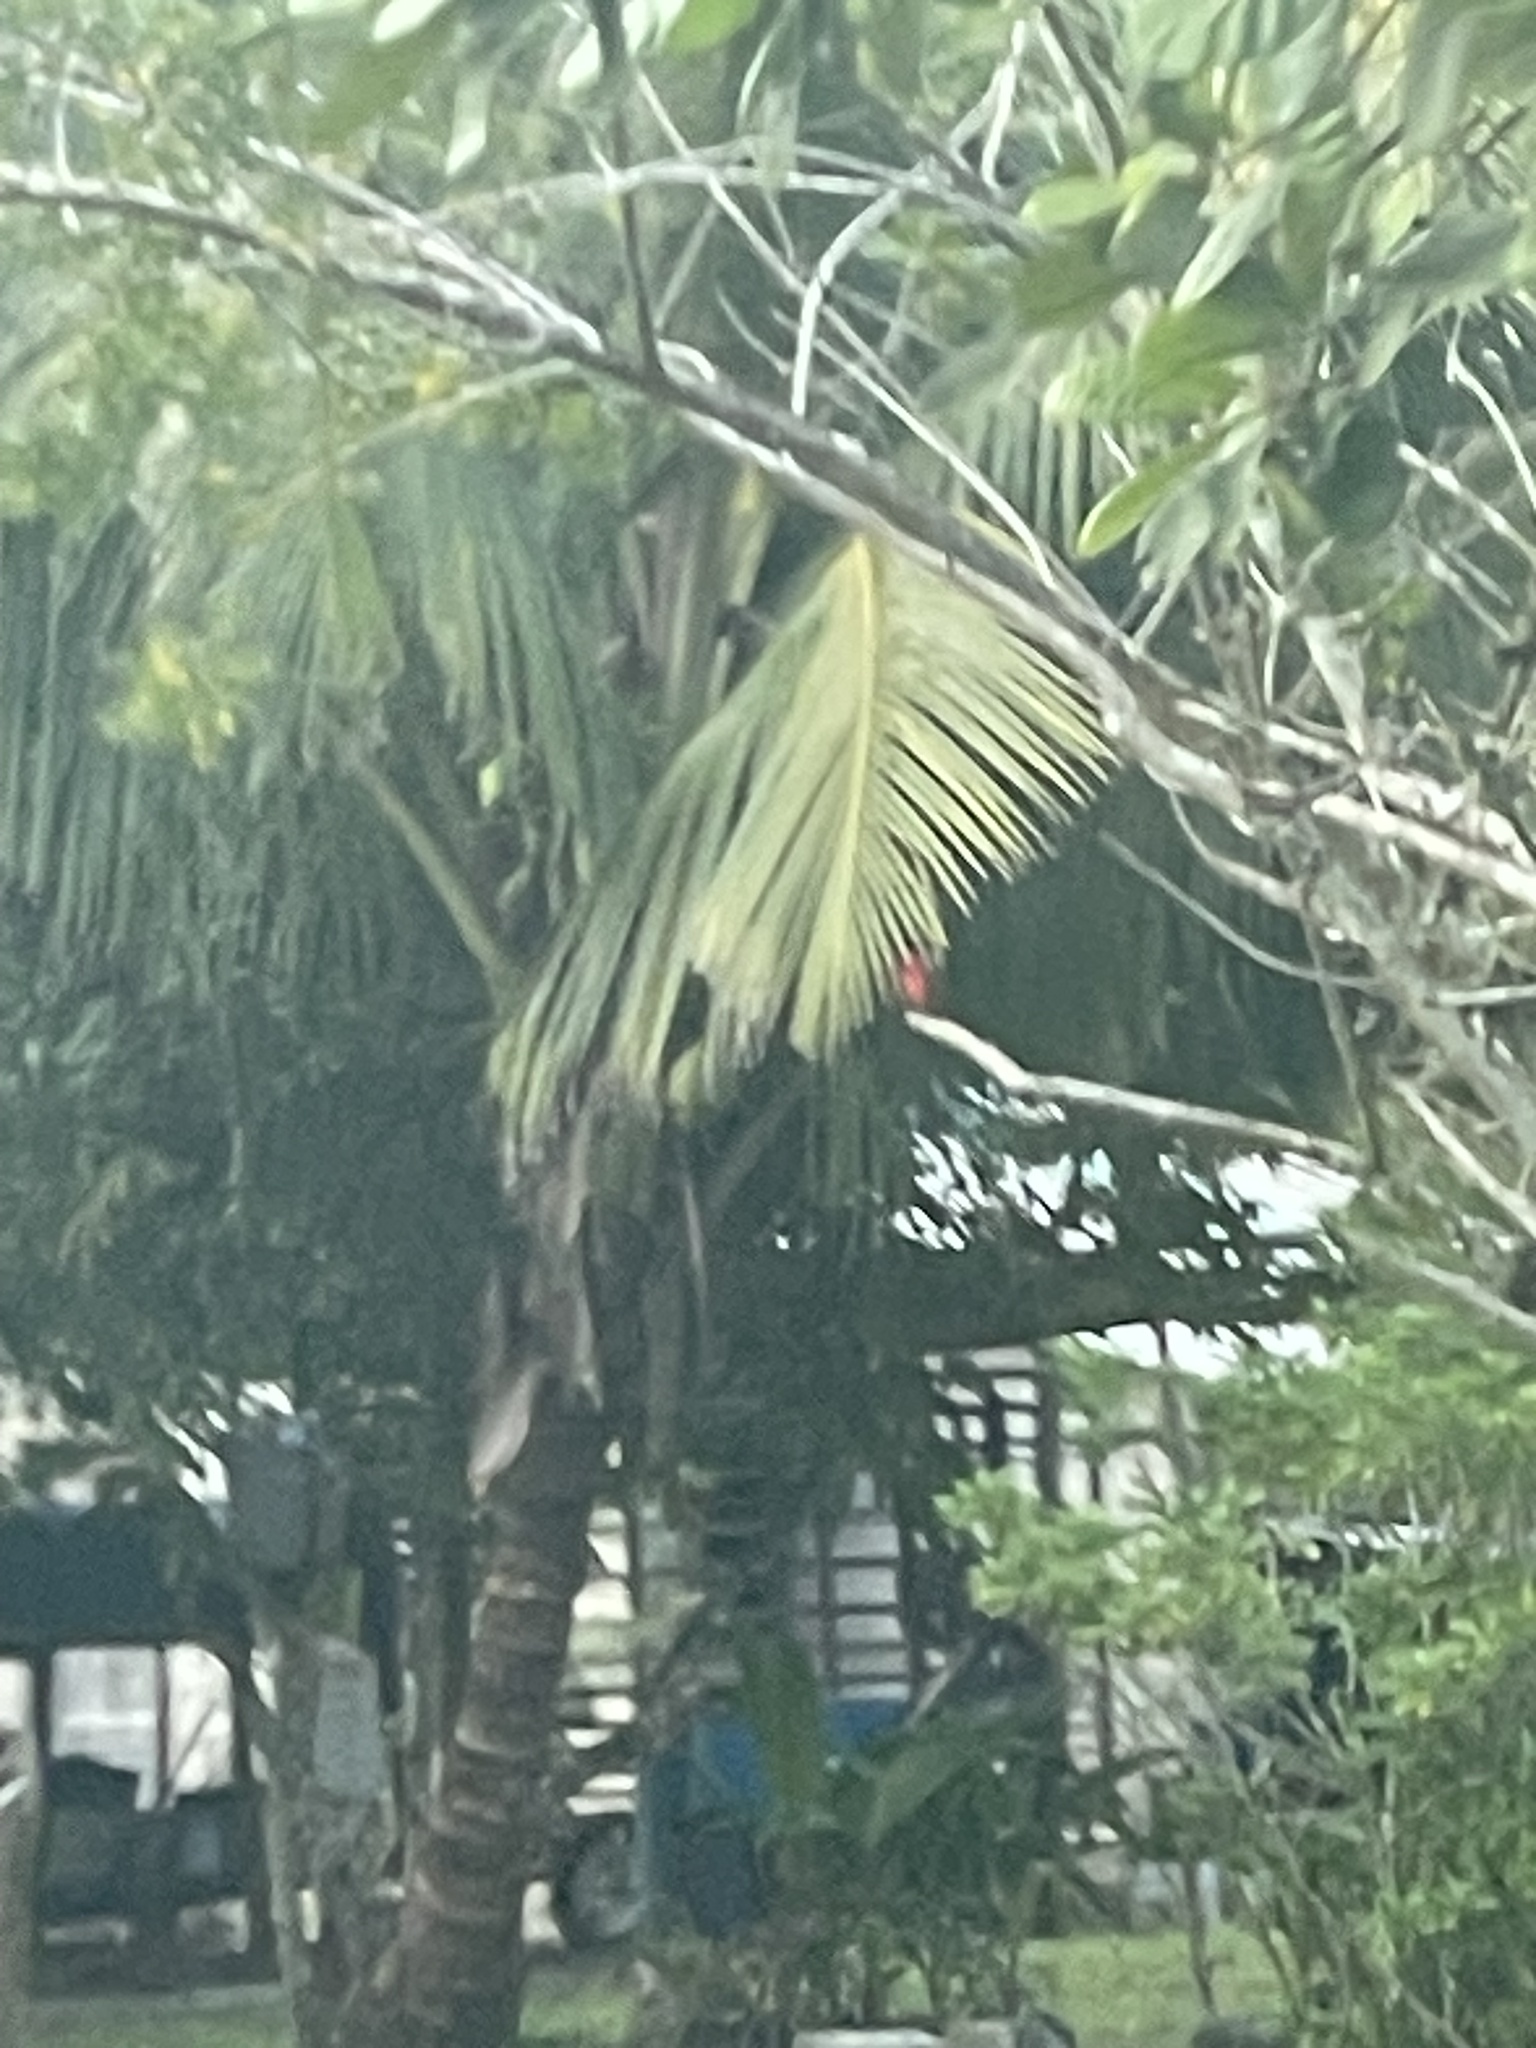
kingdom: Animalia
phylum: Chordata
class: Aves
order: Passeriformes
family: Tyrannidae
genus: Pyrocephalus
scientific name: Pyrocephalus rubinus
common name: Vermilion flycatcher
